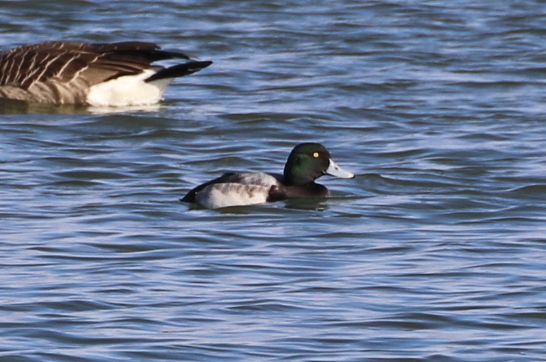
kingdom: Animalia
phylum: Chordata
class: Aves
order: Anseriformes
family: Anatidae
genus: Aythya
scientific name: Aythya marila
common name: Greater scaup
